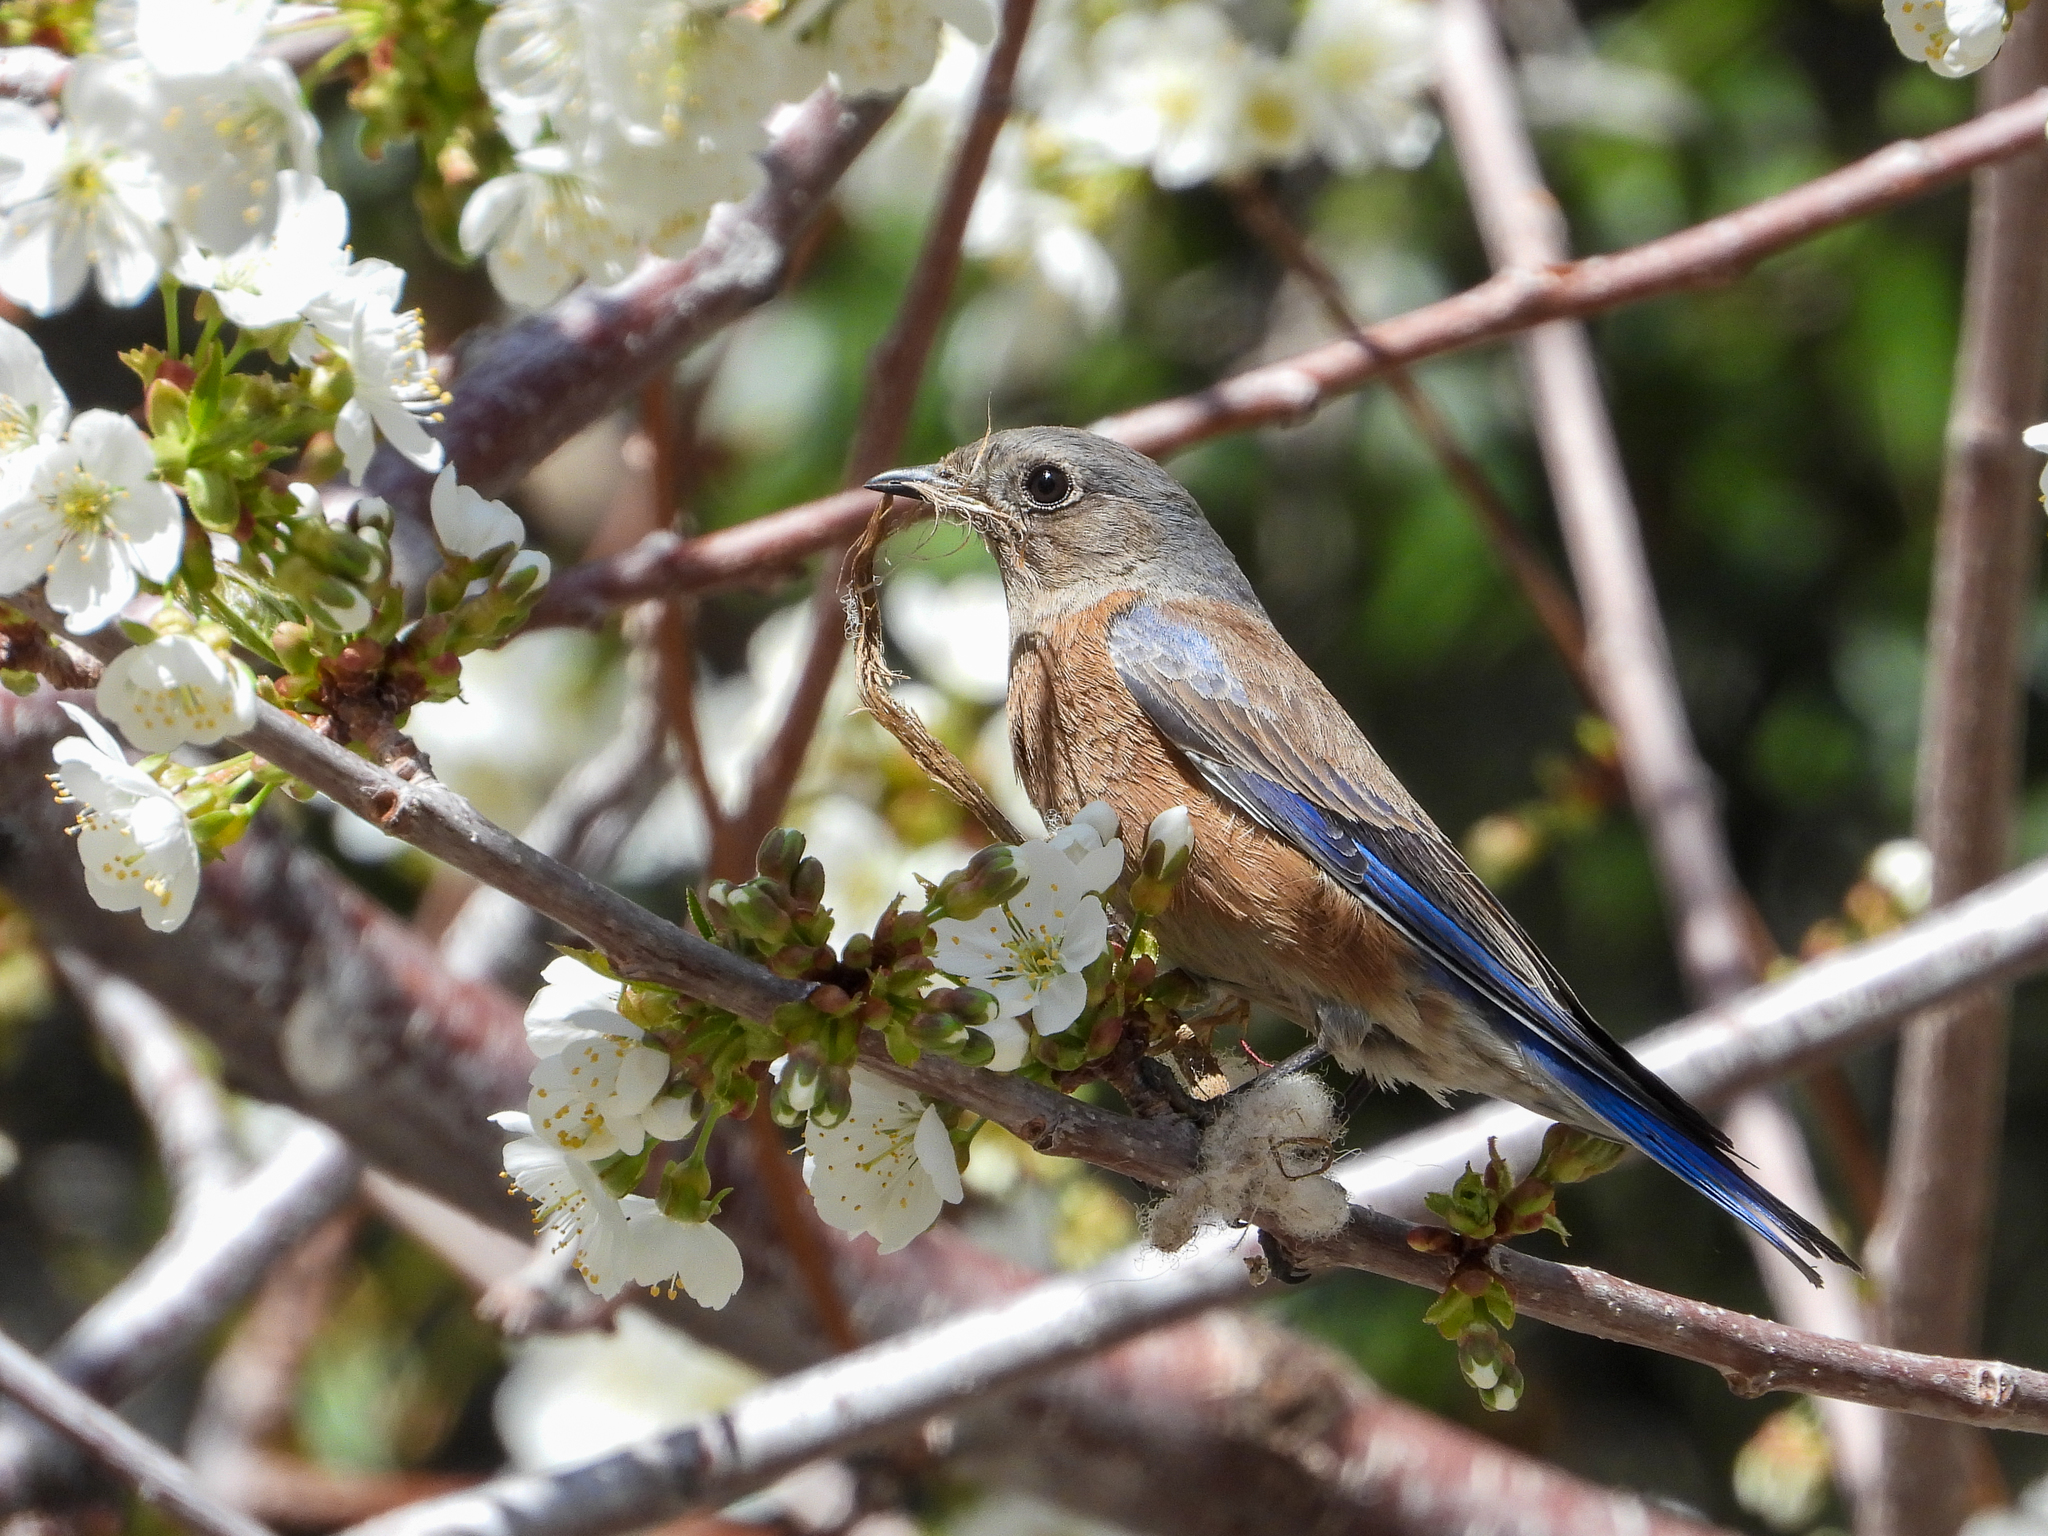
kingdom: Animalia
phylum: Chordata
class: Aves
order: Passeriformes
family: Turdidae
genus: Sialia
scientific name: Sialia mexicana
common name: Western bluebird
